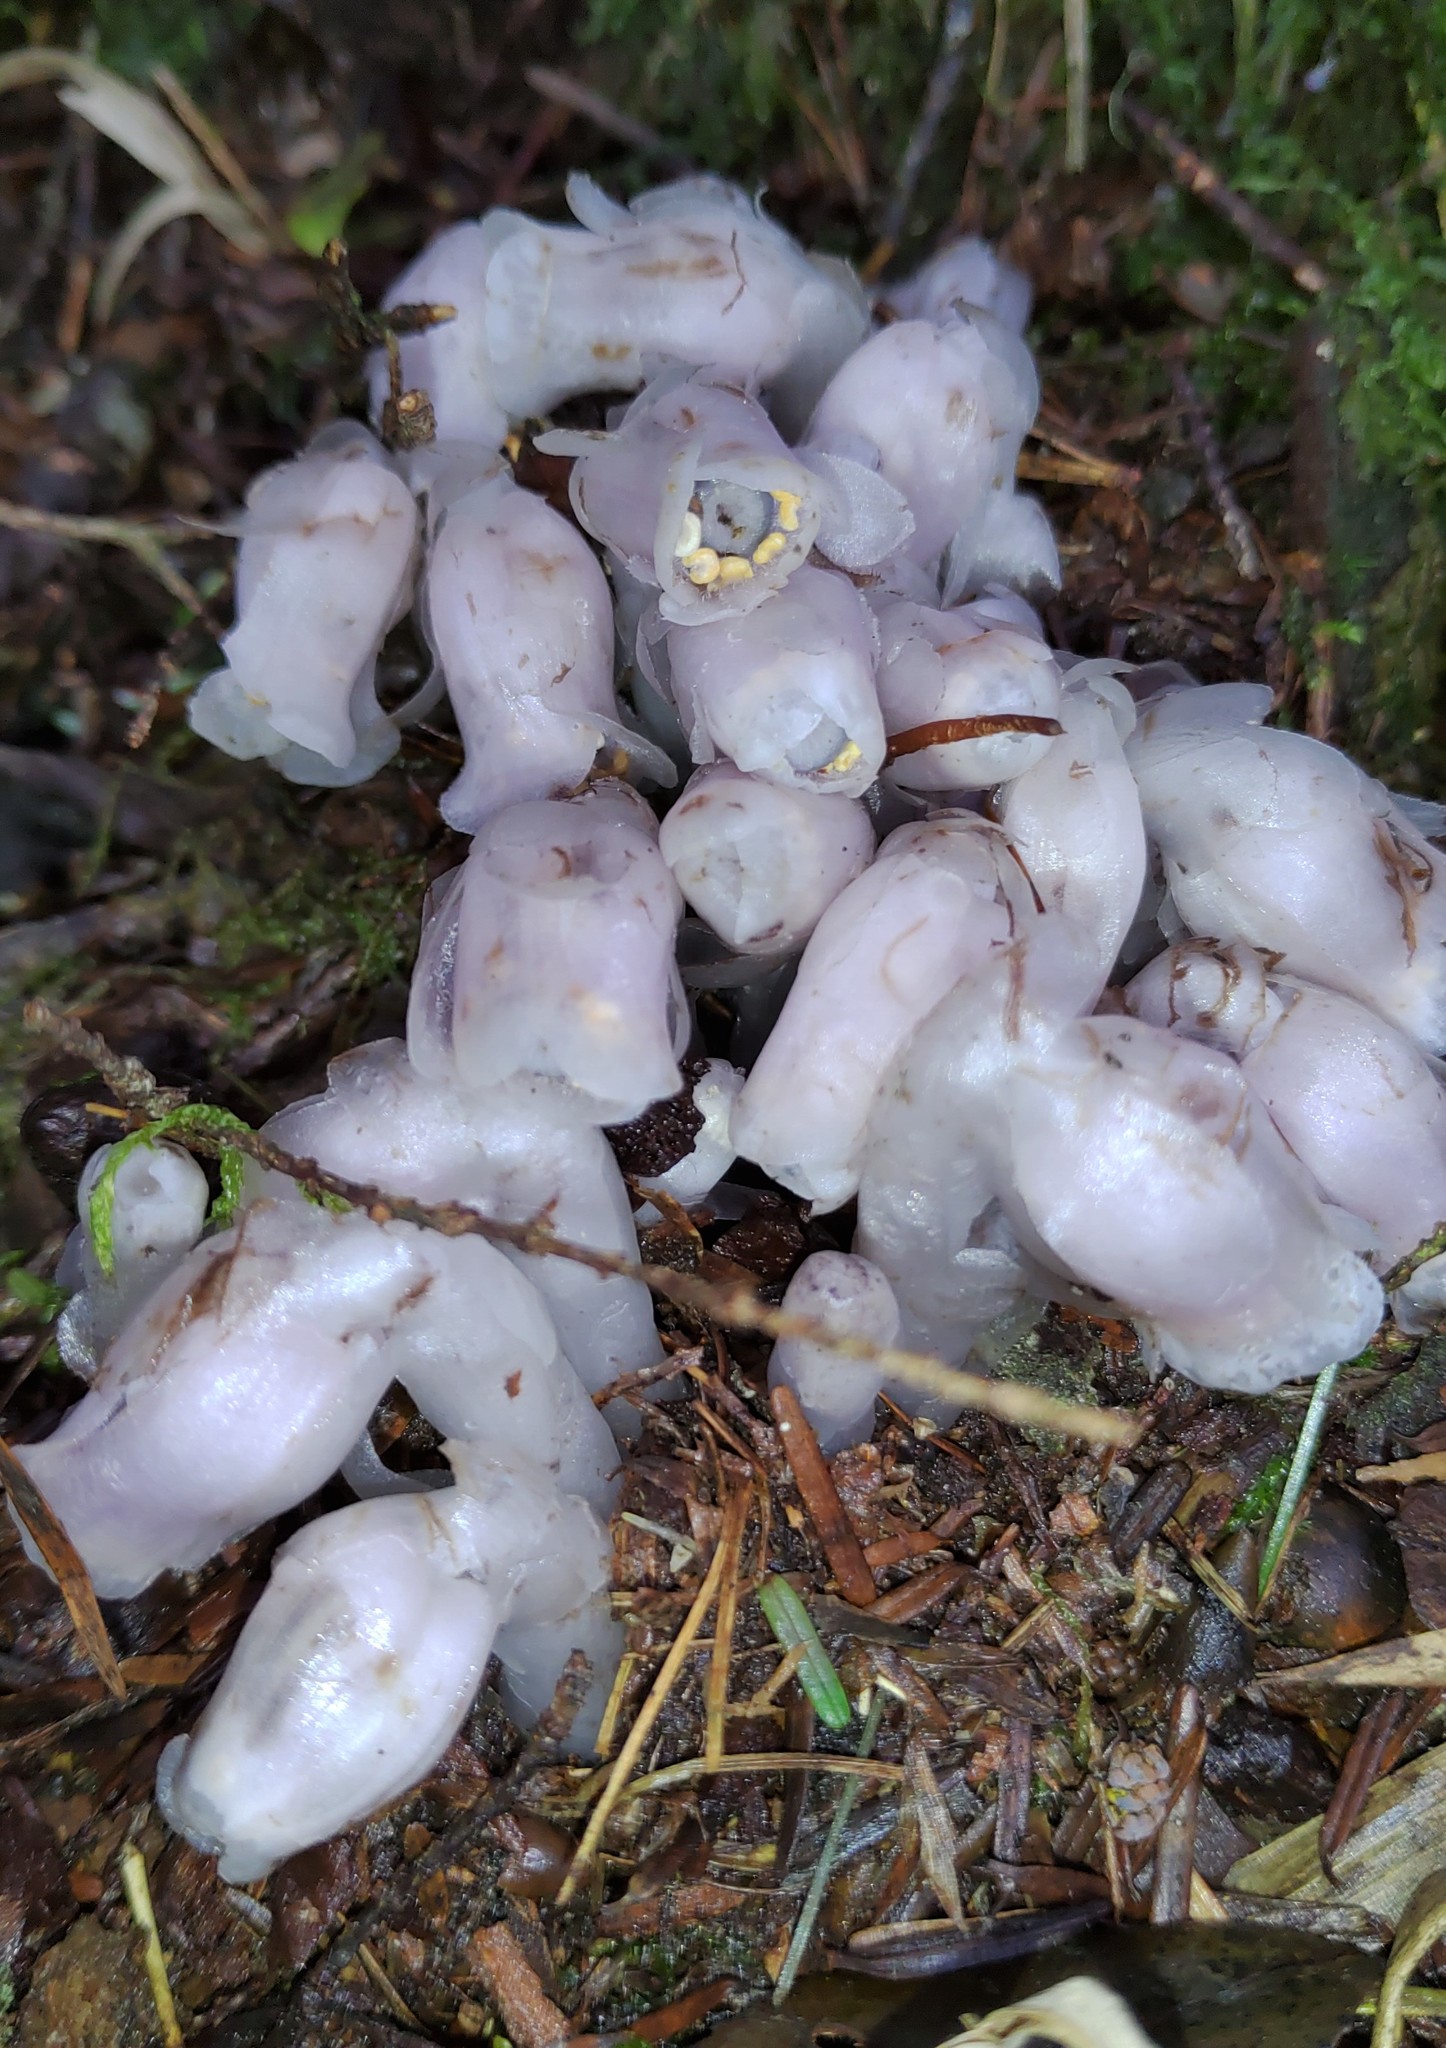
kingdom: Plantae
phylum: Tracheophyta
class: Magnoliopsida
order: Ericales
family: Ericaceae
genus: Monotropastrum
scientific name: Monotropastrum humile
